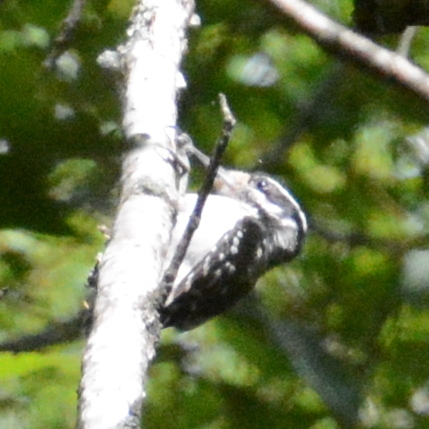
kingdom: Animalia
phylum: Chordata
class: Aves
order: Piciformes
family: Picidae
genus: Leuconotopicus
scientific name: Leuconotopicus villosus
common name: Hairy woodpecker
